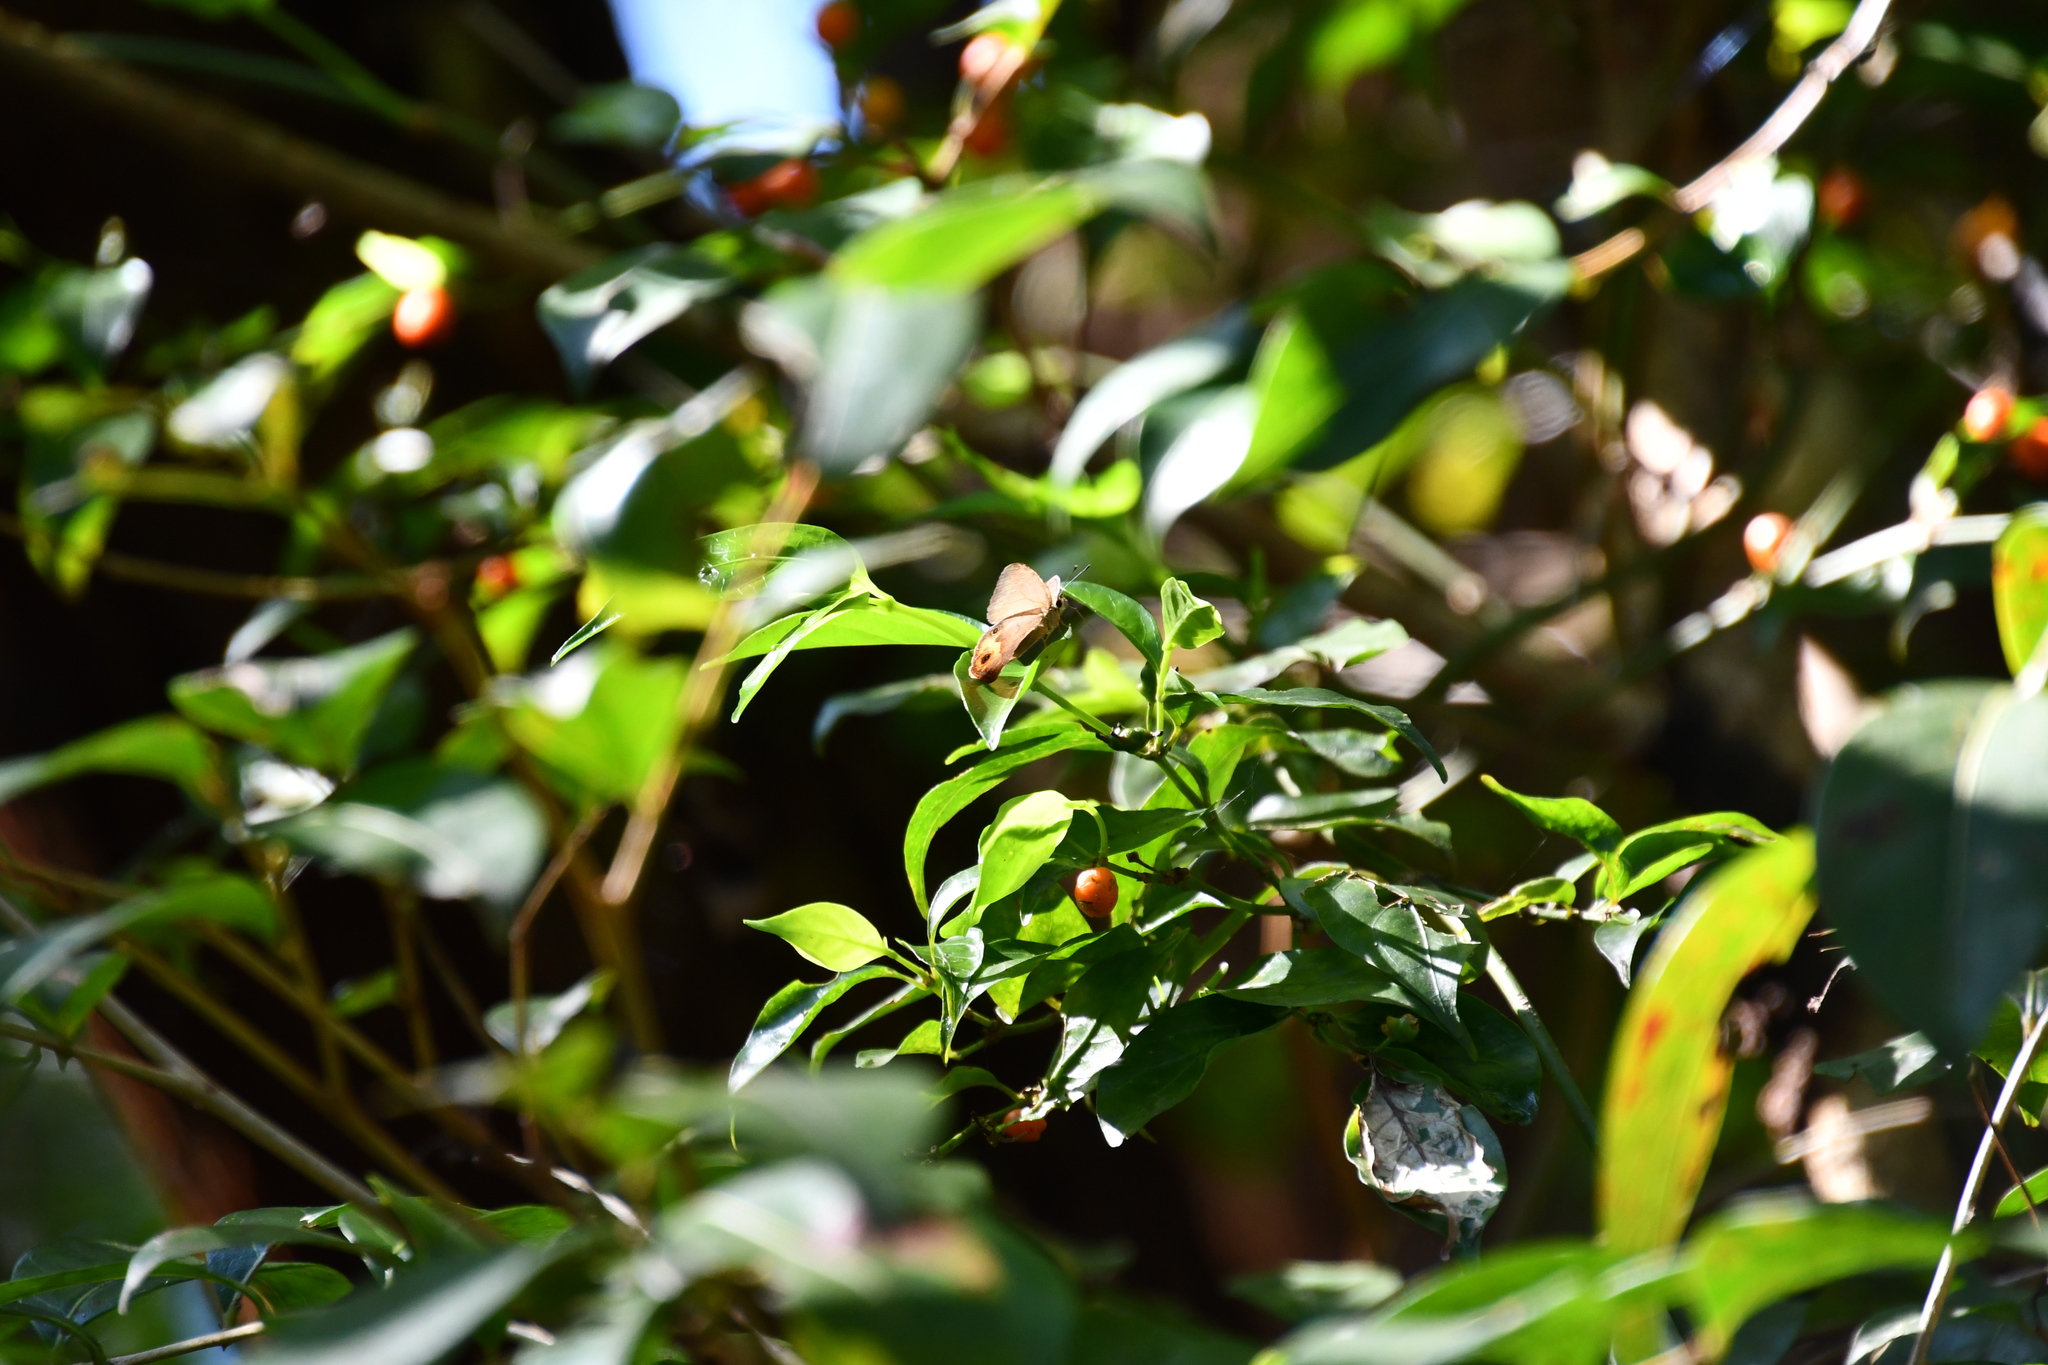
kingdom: Animalia
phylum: Arthropoda
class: Insecta
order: Lepidoptera
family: Nymphalidae
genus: Hypocysta
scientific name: Hypocysta metirius
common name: Brown ringlet
